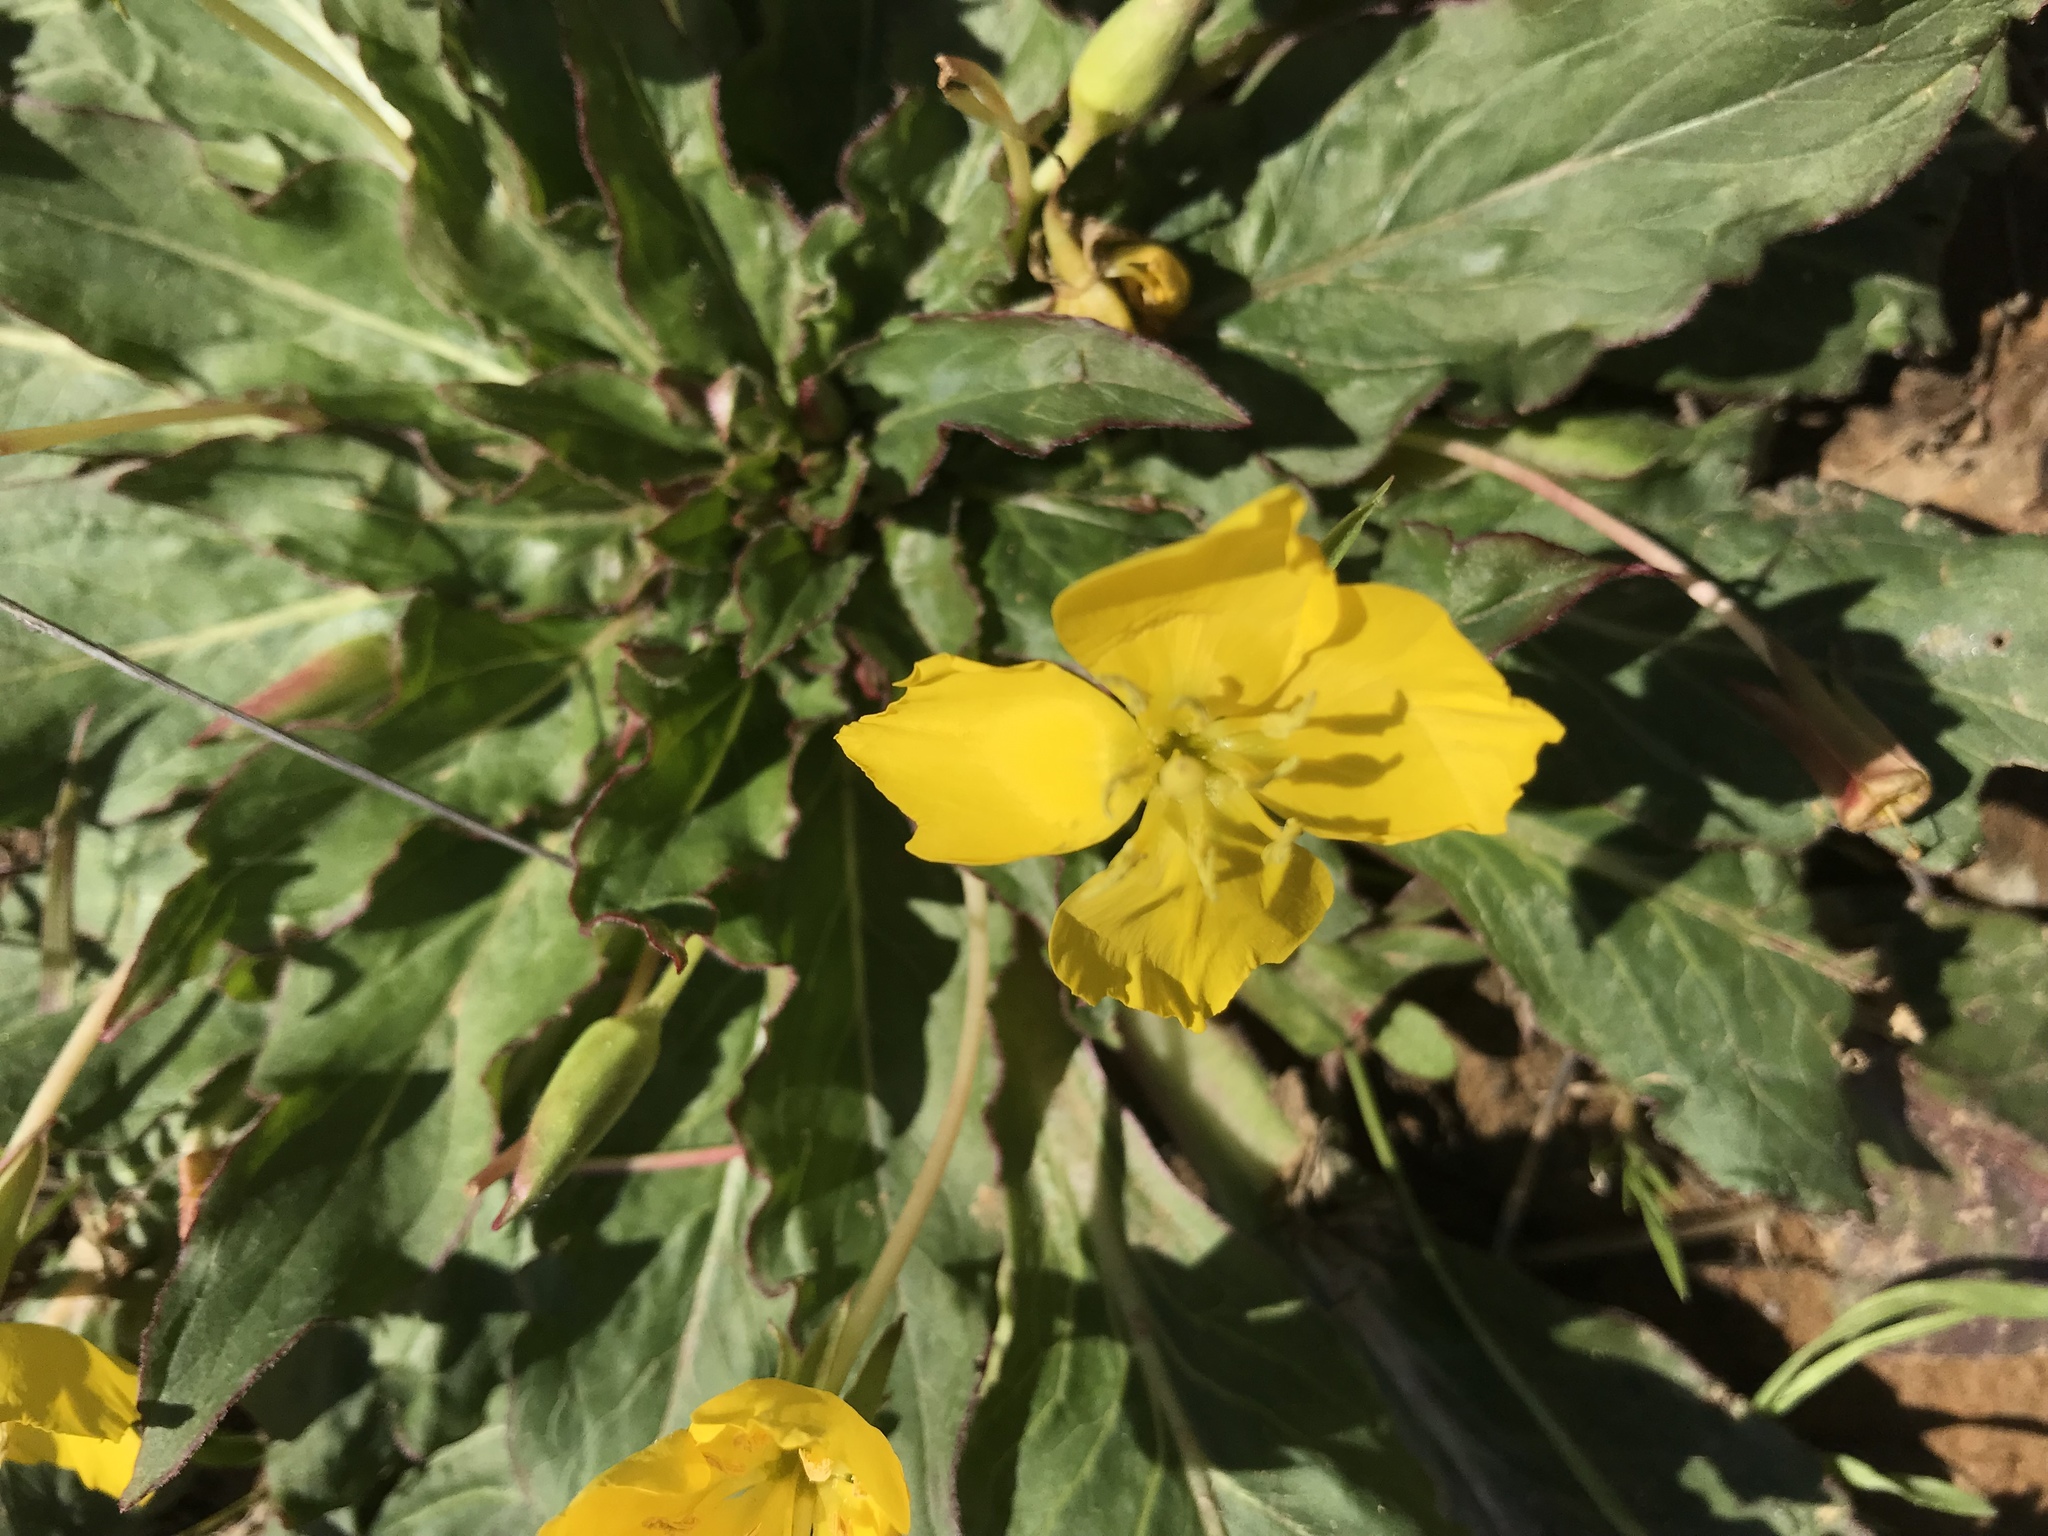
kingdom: Plantae
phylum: Tracheophyta
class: Magnoliopsida
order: Myrtales
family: Onagraceae
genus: Taraxia
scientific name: Taraxia ovata
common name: Goldeneggs
